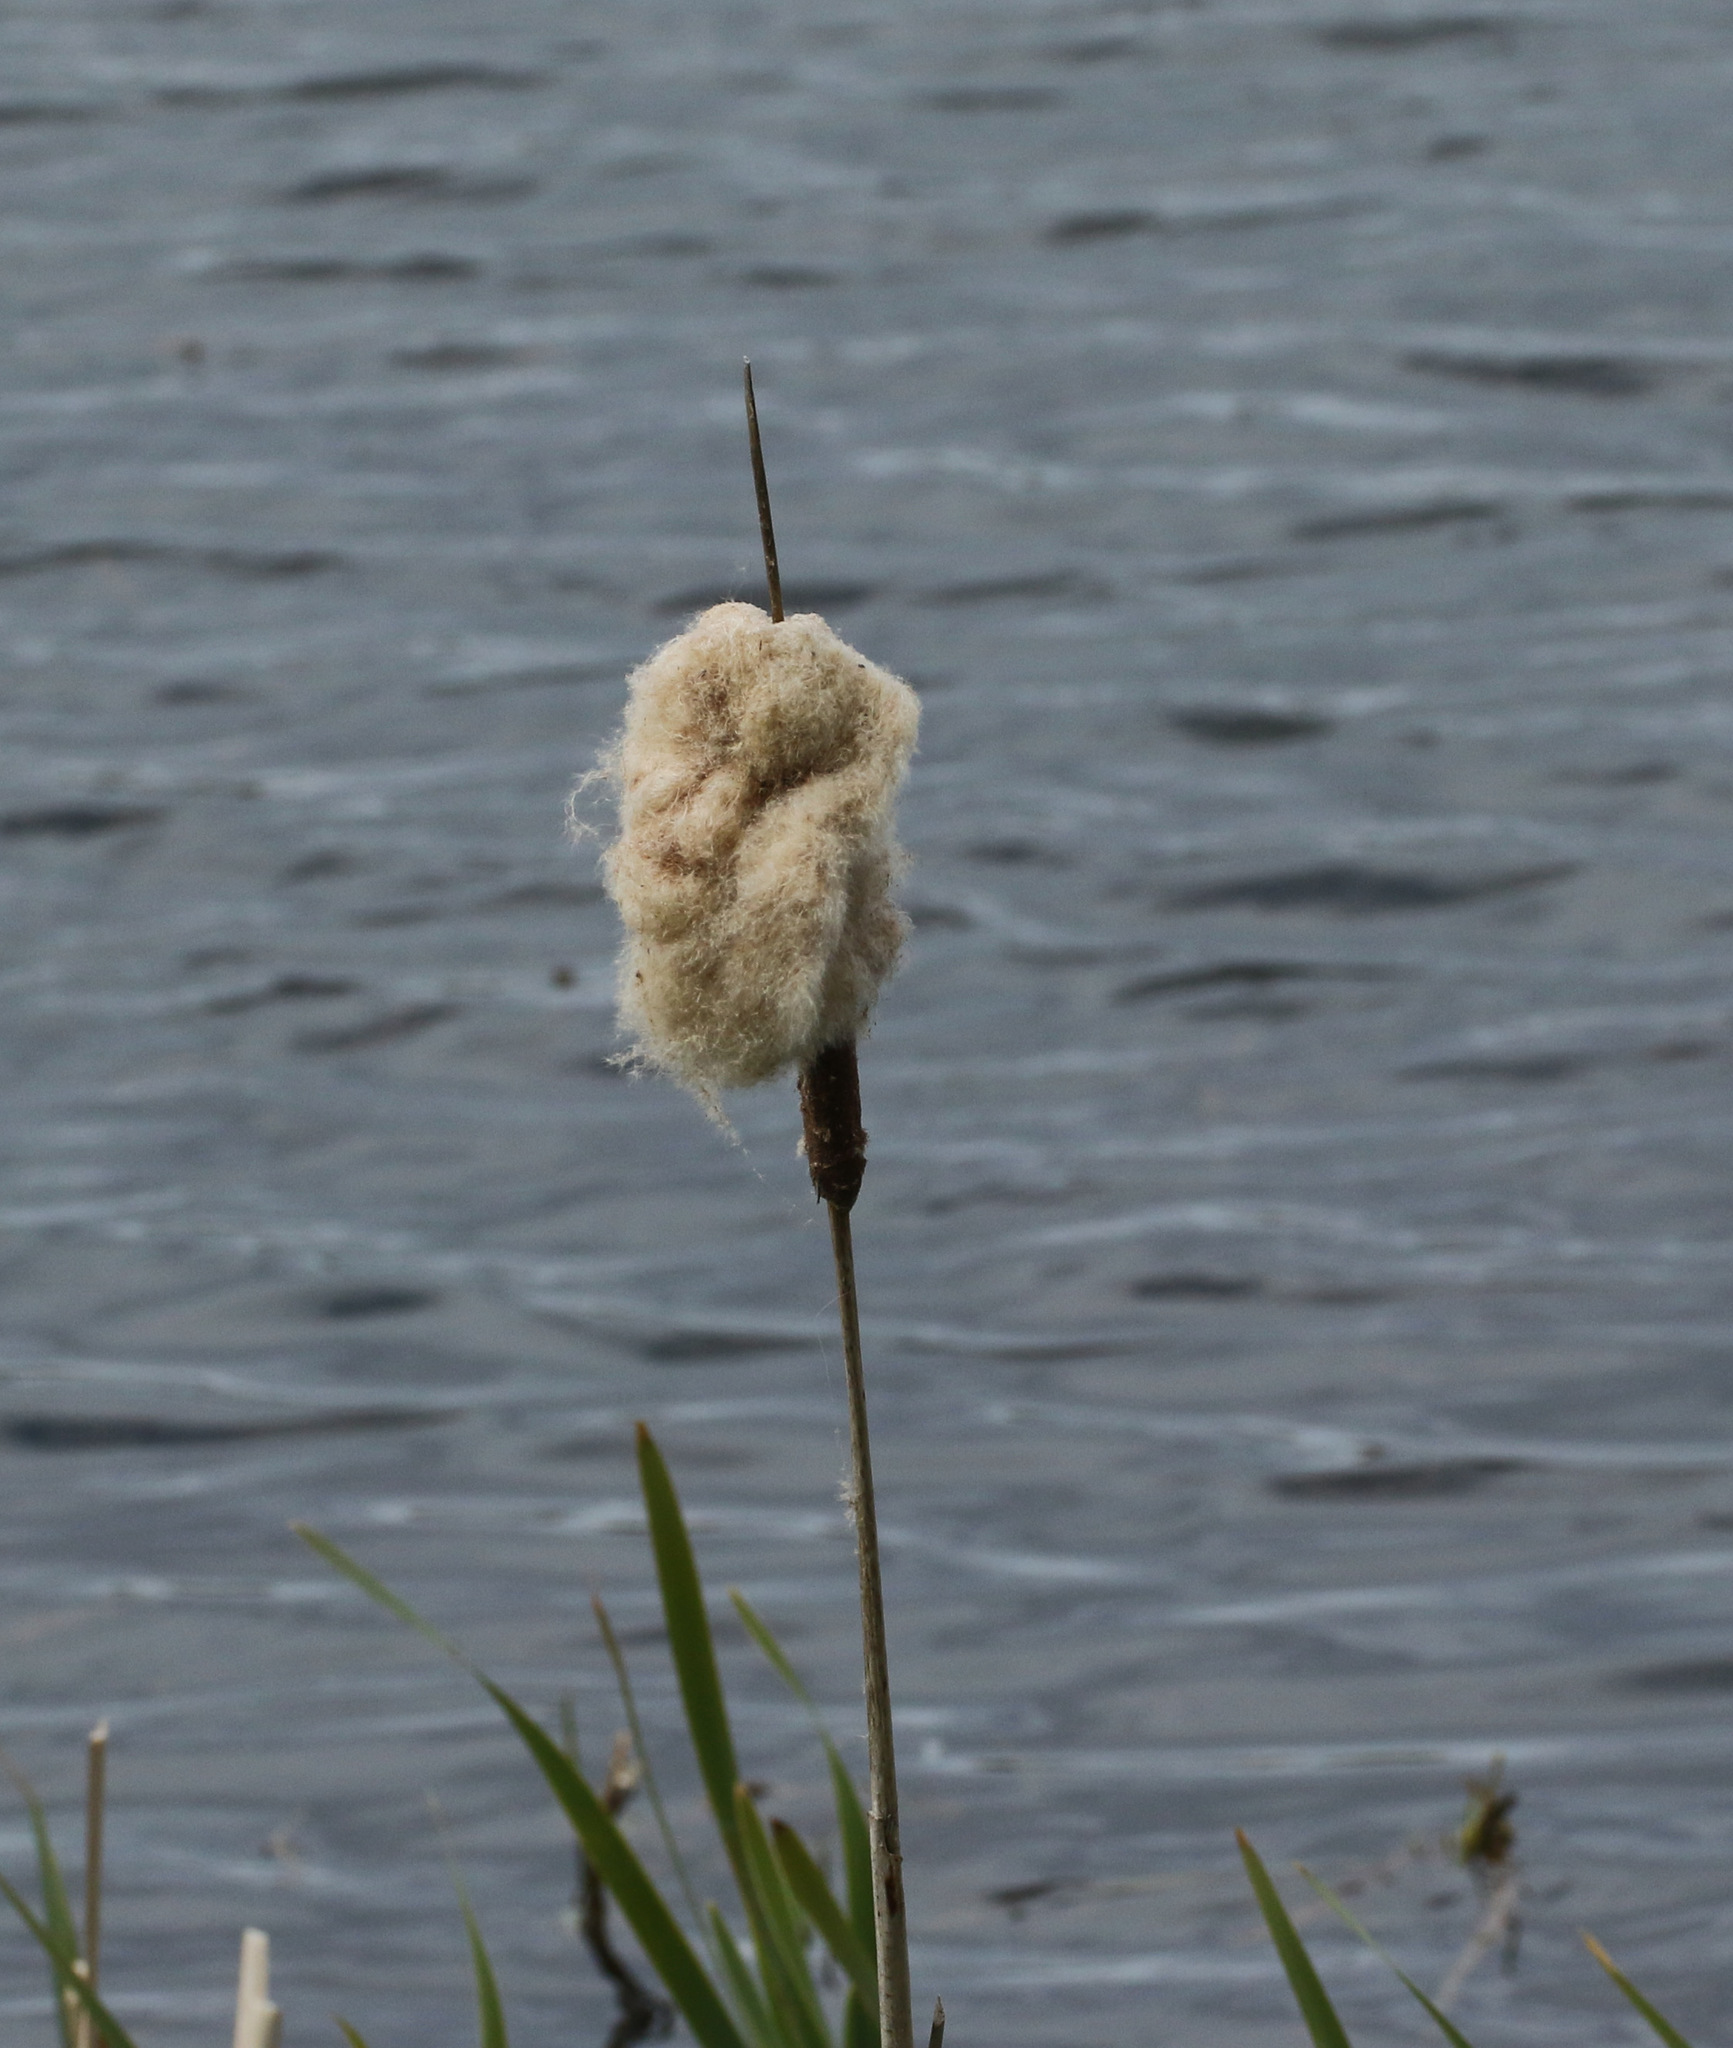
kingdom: Plantae
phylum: Tracheophyta
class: Liliopsida
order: Poales
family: Typhaceae
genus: Typha
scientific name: Typha latifolia
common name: Broadleaf cattail
